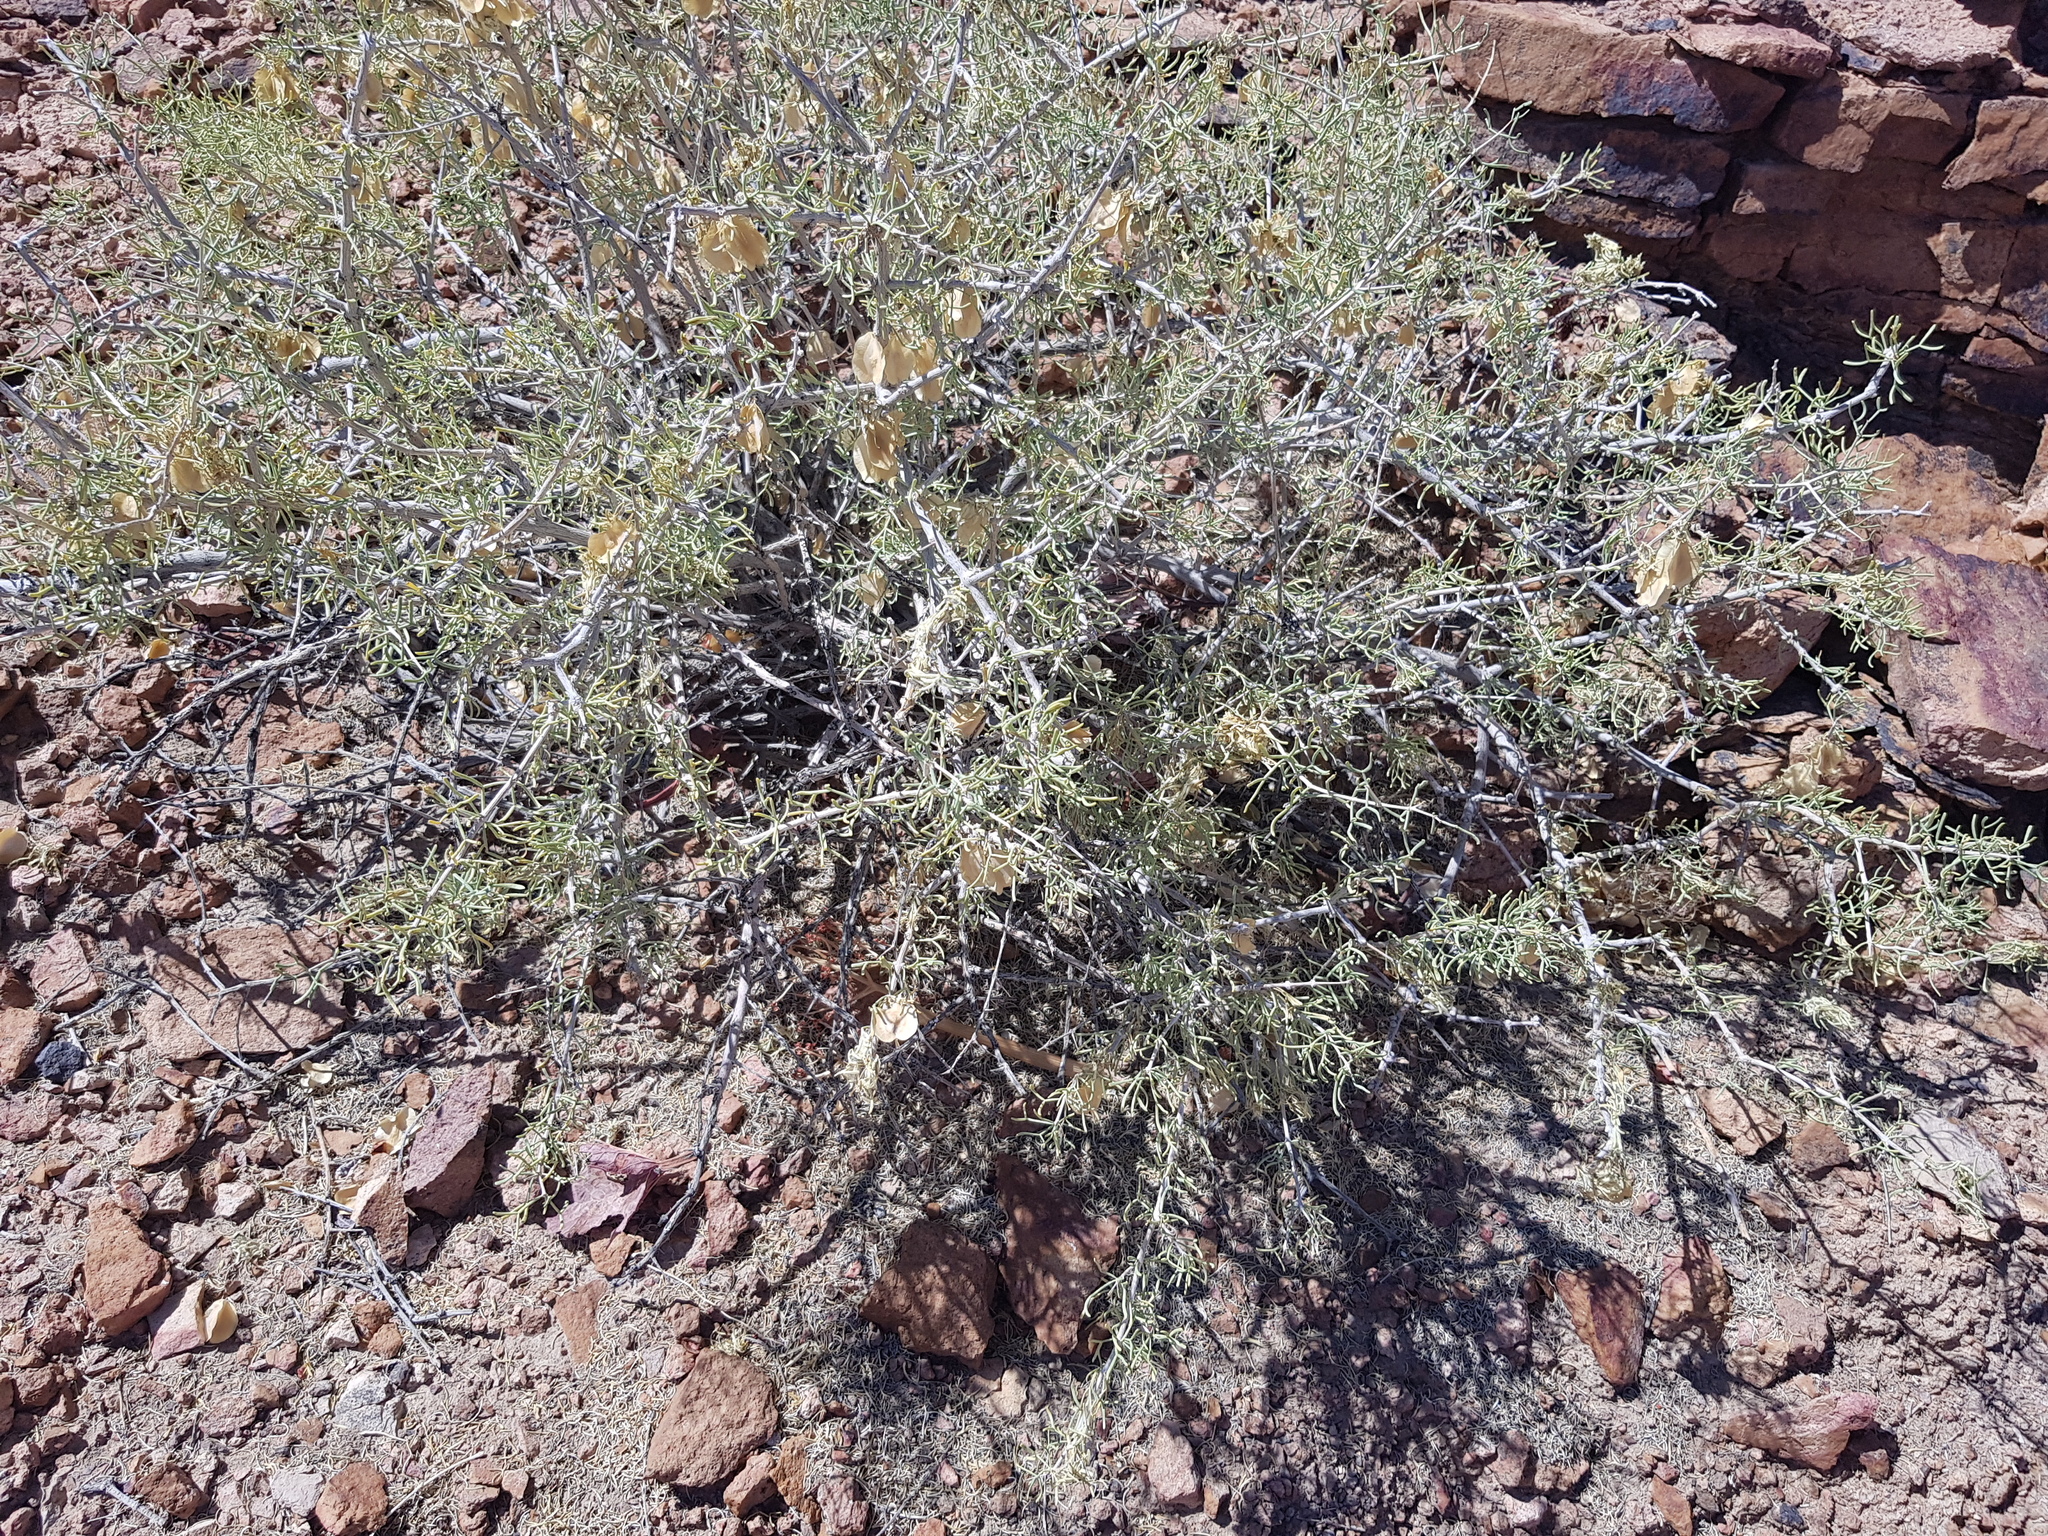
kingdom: Plantae
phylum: Tracheophyta
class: Magnoliopsida
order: Zygophyllales
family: Zygophyllaceae
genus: Zygophyllum
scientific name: Zygophyllum xanthoxylum
